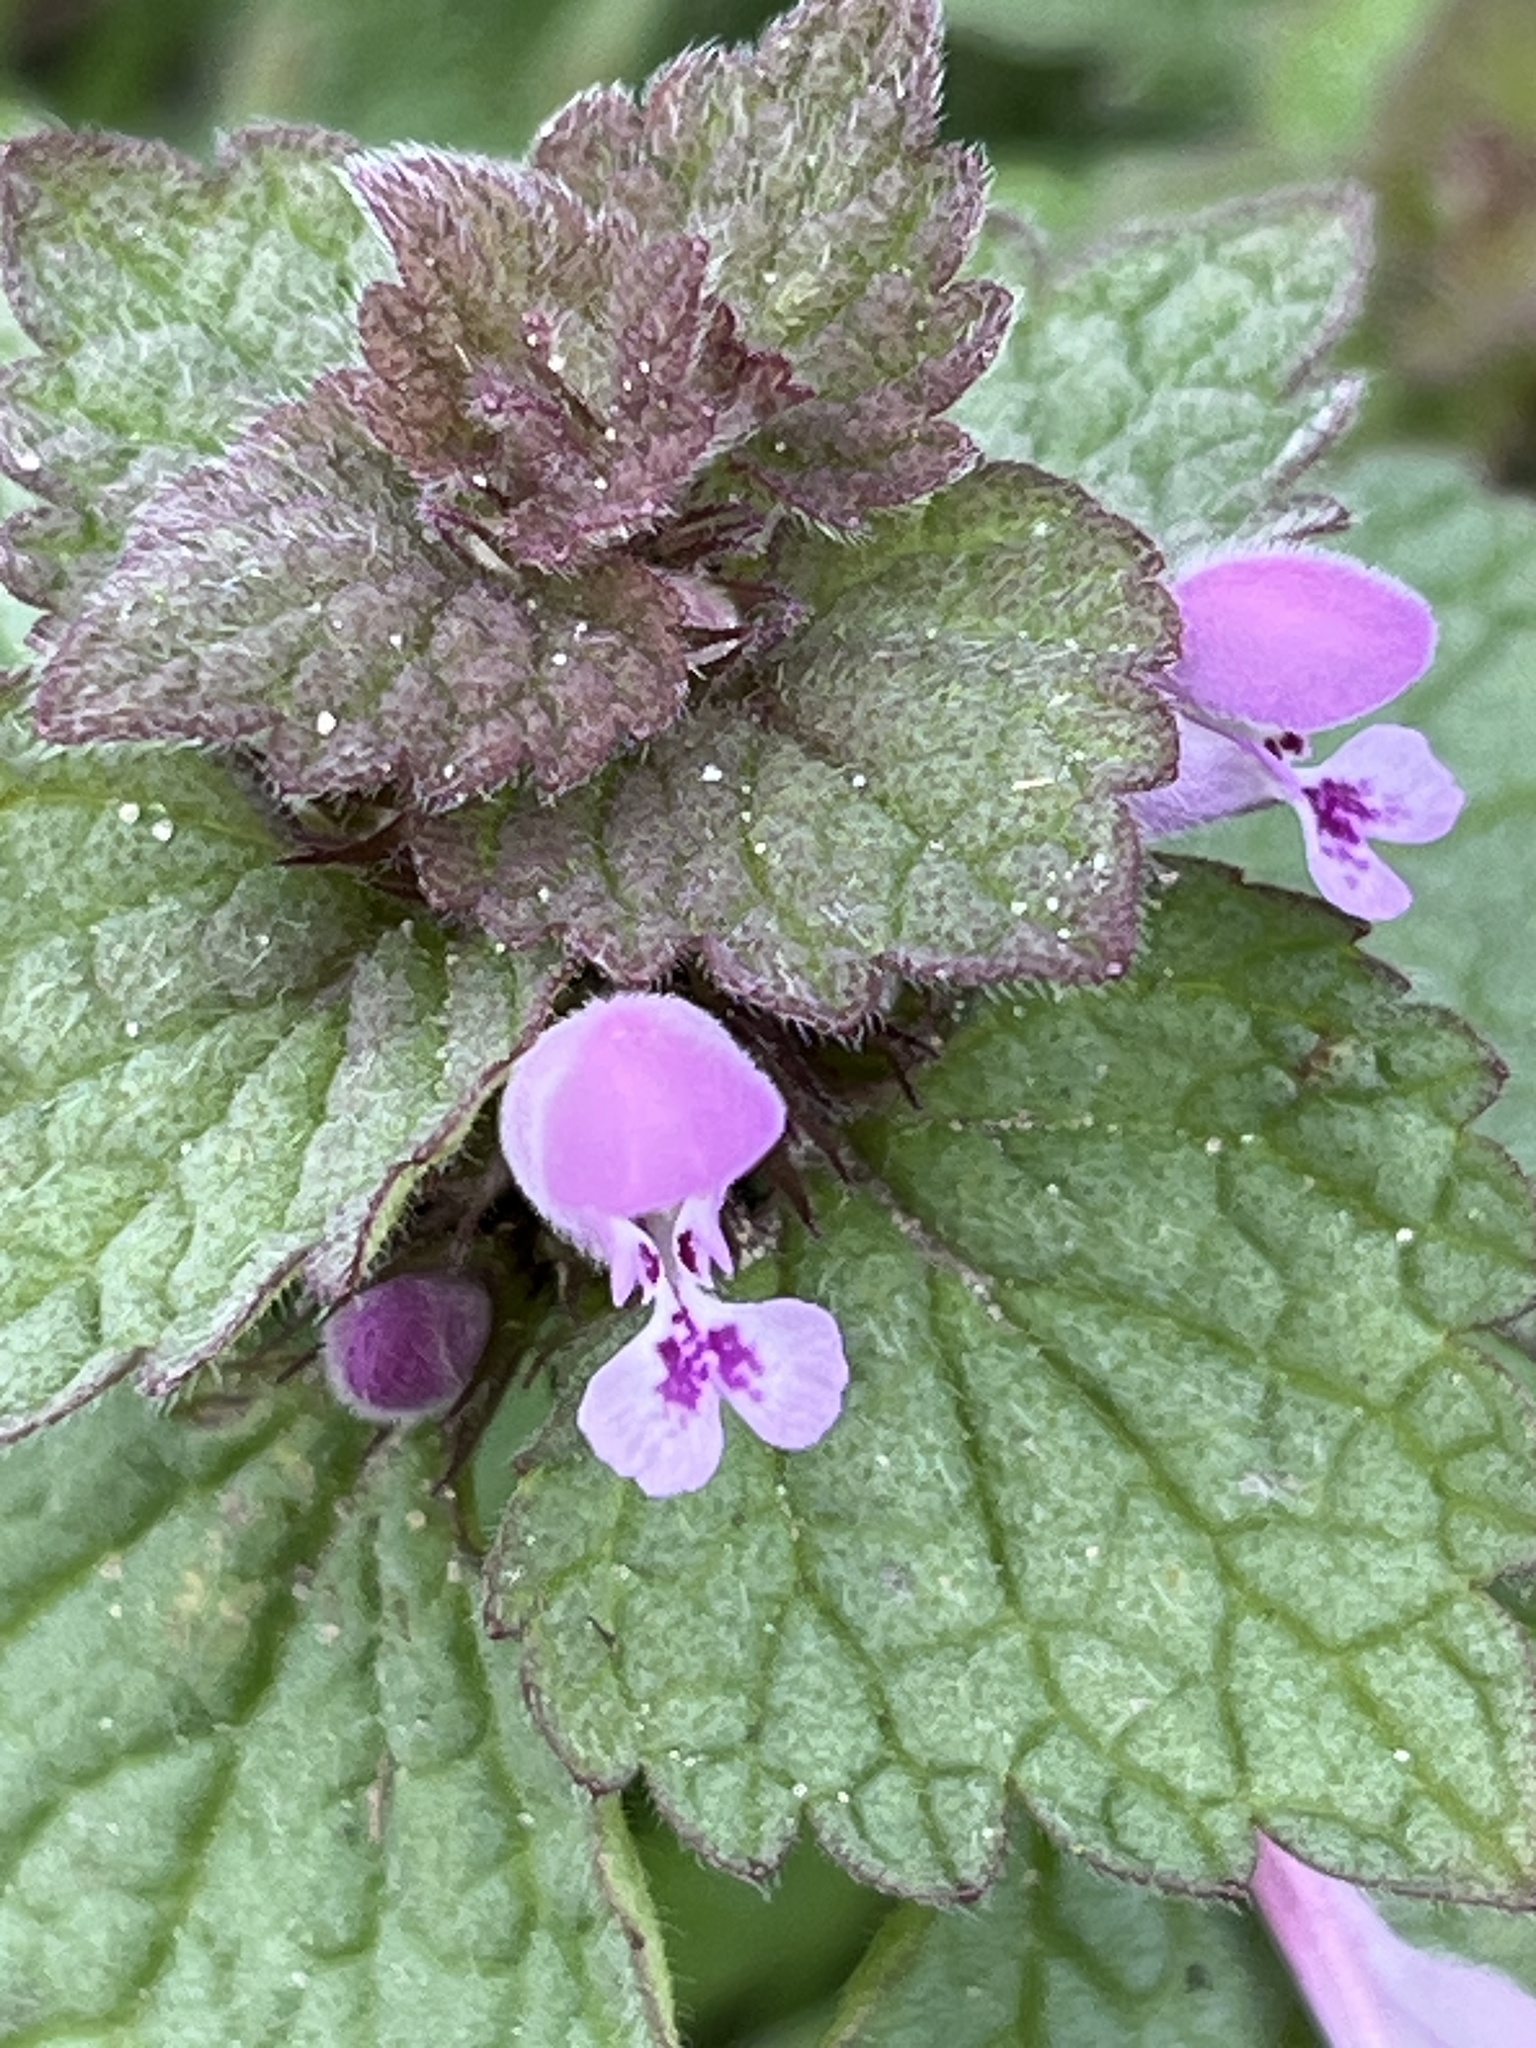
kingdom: Plantae
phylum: Tracheophyta
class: Magnoliopsida
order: Lamiales
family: Lamiaceae
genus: Lamium
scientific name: Lamium purpureum
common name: Red dead-nettle
